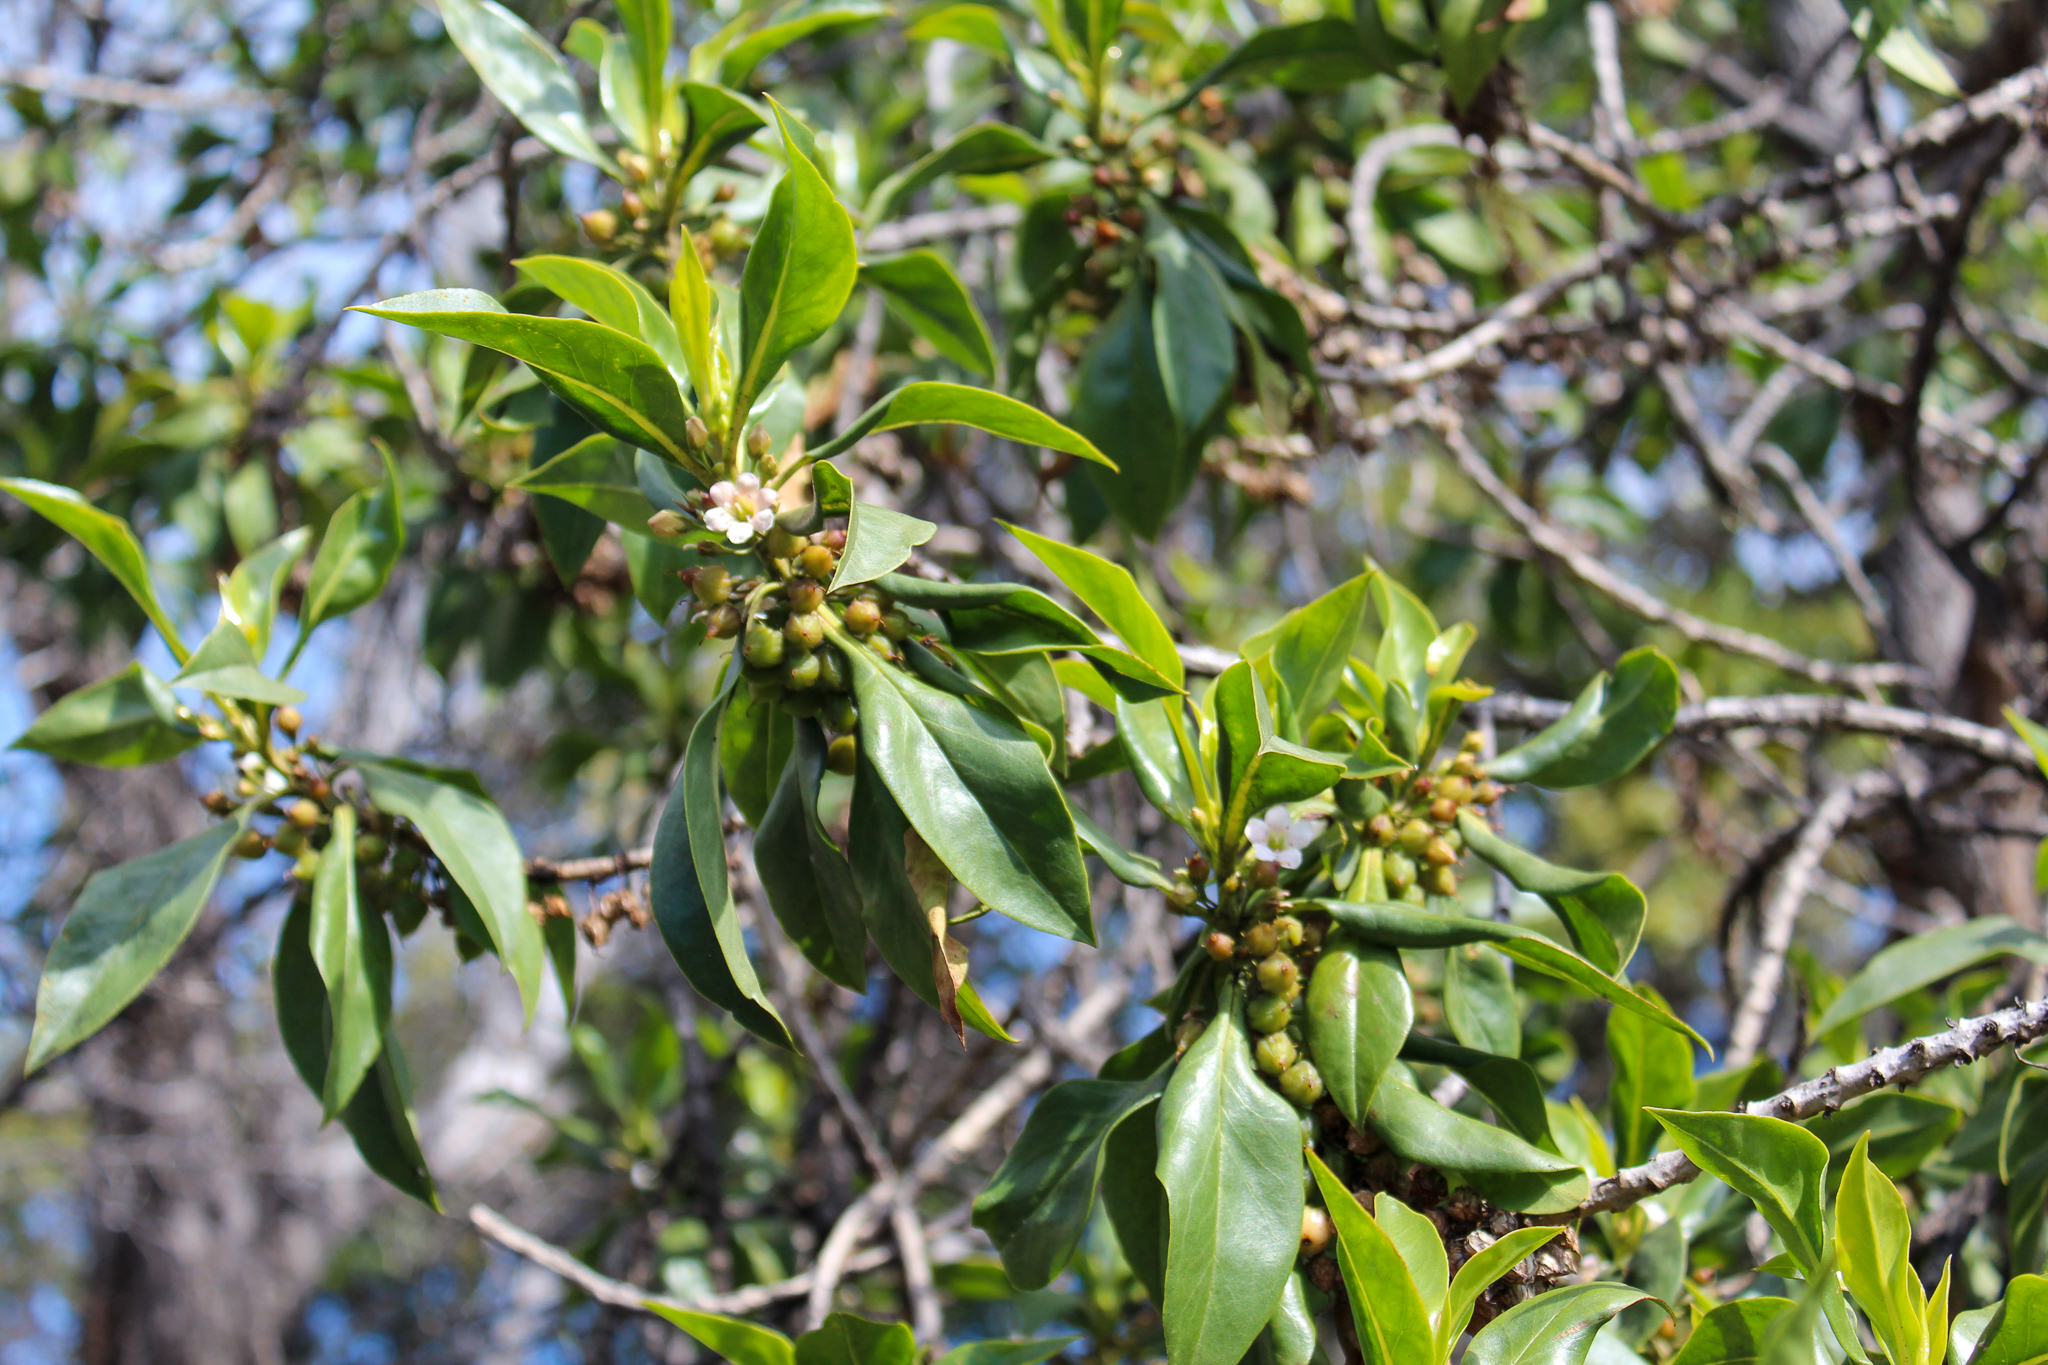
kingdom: Plantae
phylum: Tracheophyta
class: Magnoliopsida
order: Lamiales
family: Scrophulariaceae
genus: Myoporum
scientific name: Myoporum sandwicense
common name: Bastard-sandalwood
